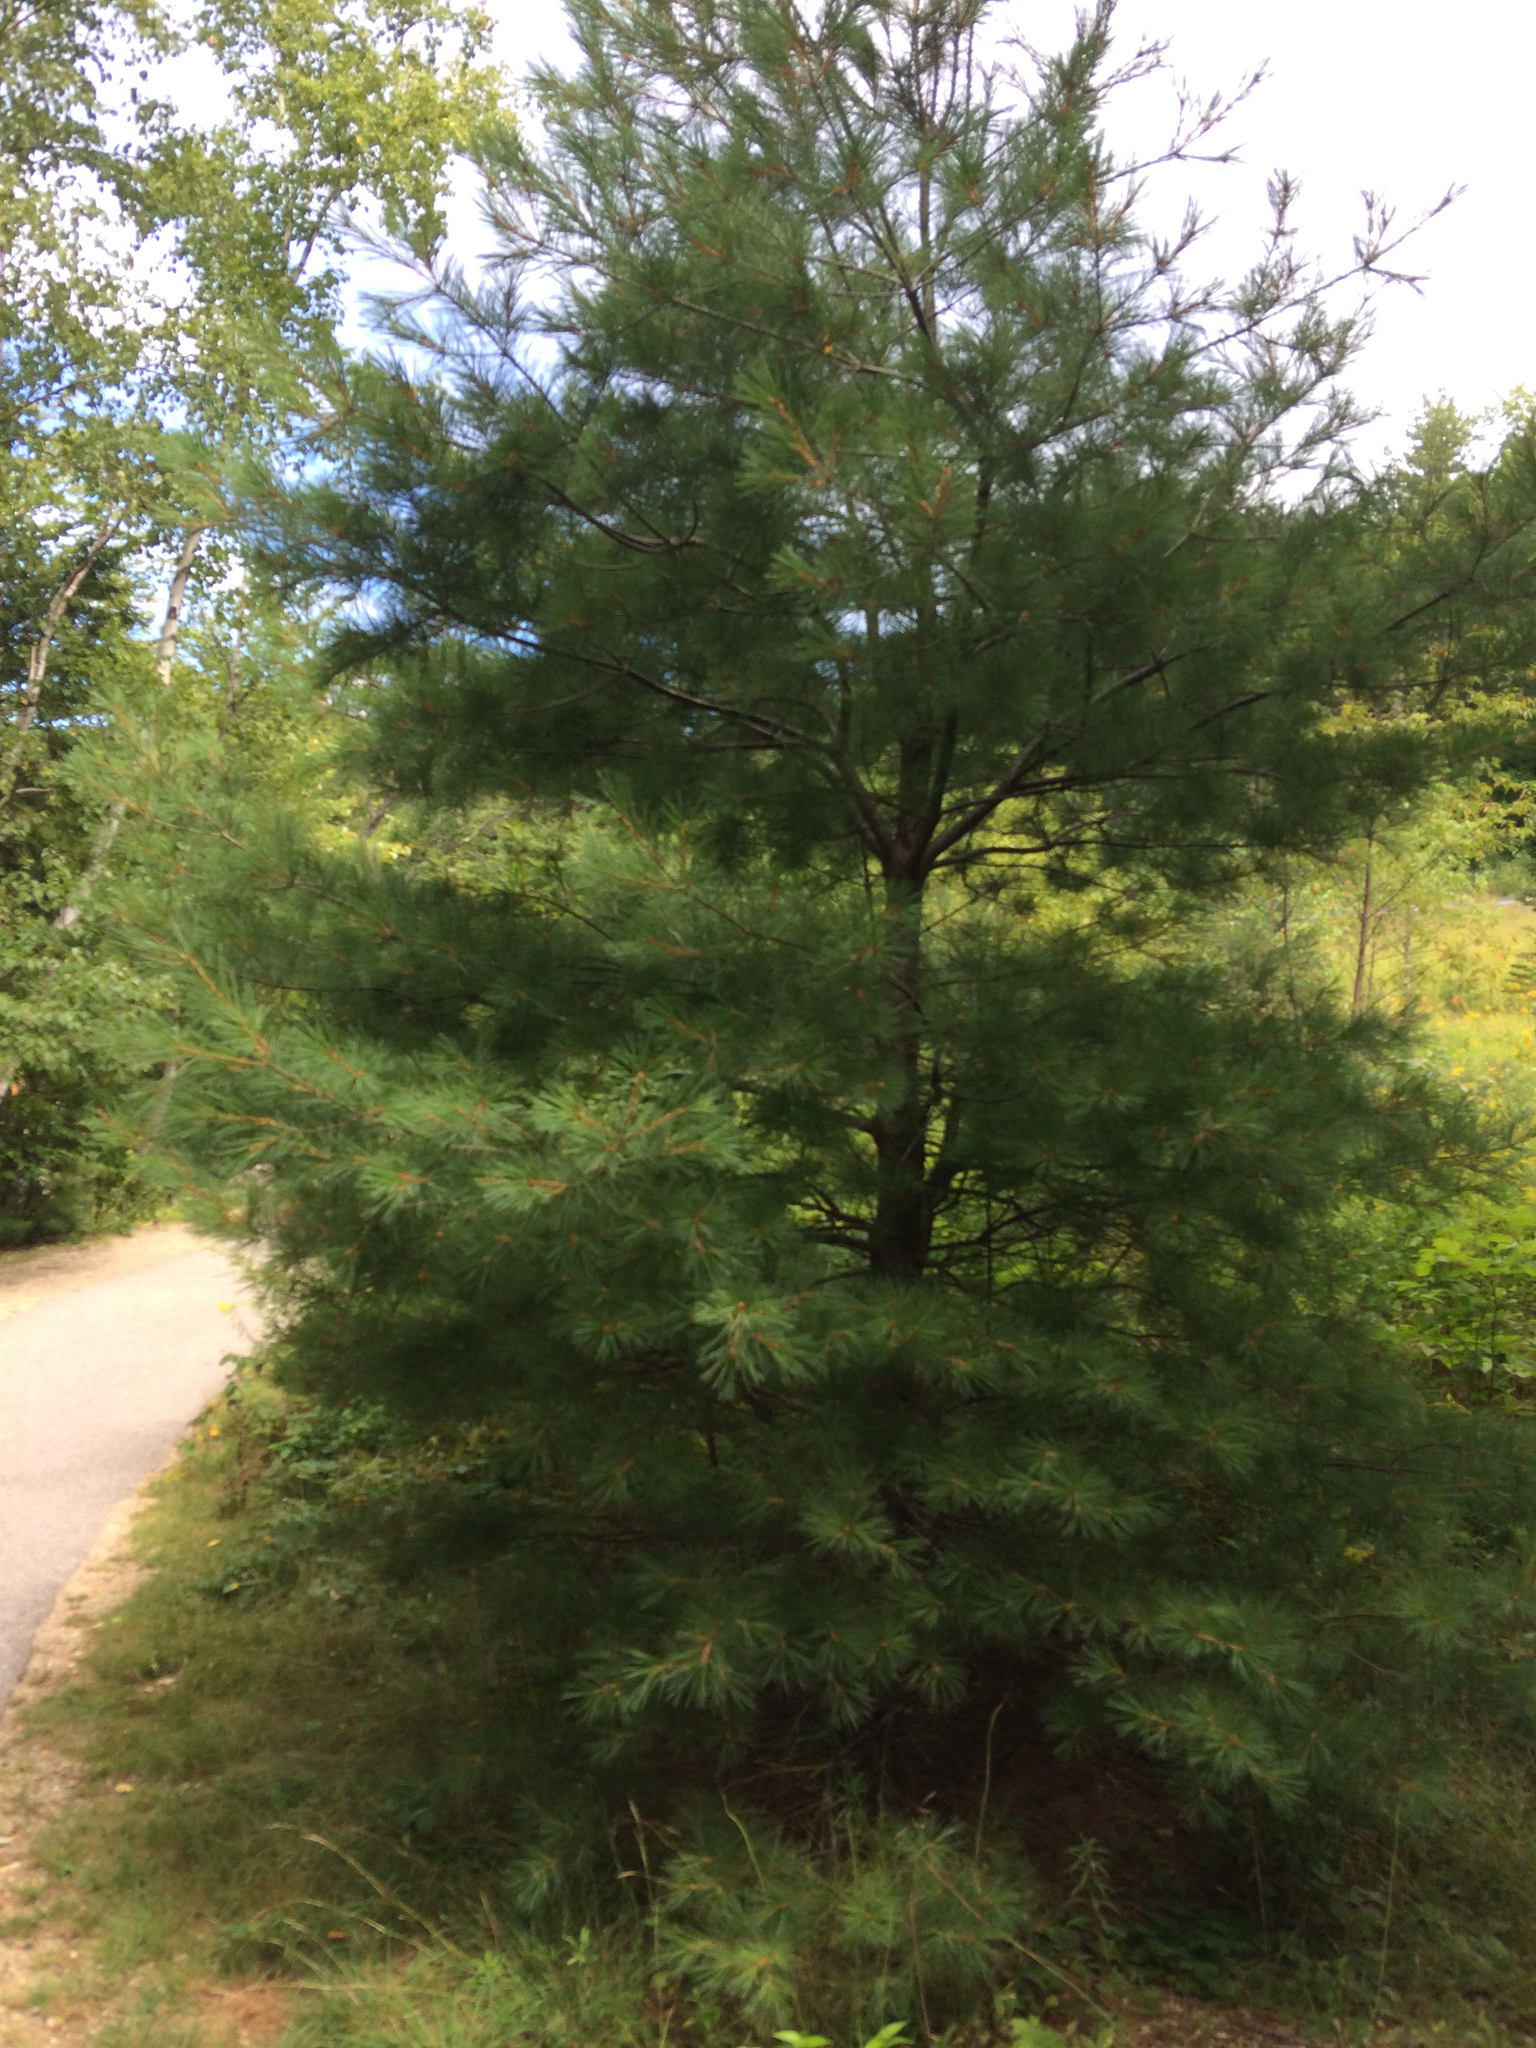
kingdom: Plantae
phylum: Tracheophyta
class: Pinopsida
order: Pinales
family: Pinaceae
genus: Pinus
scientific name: Pinus strobus
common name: Weymouth pine
